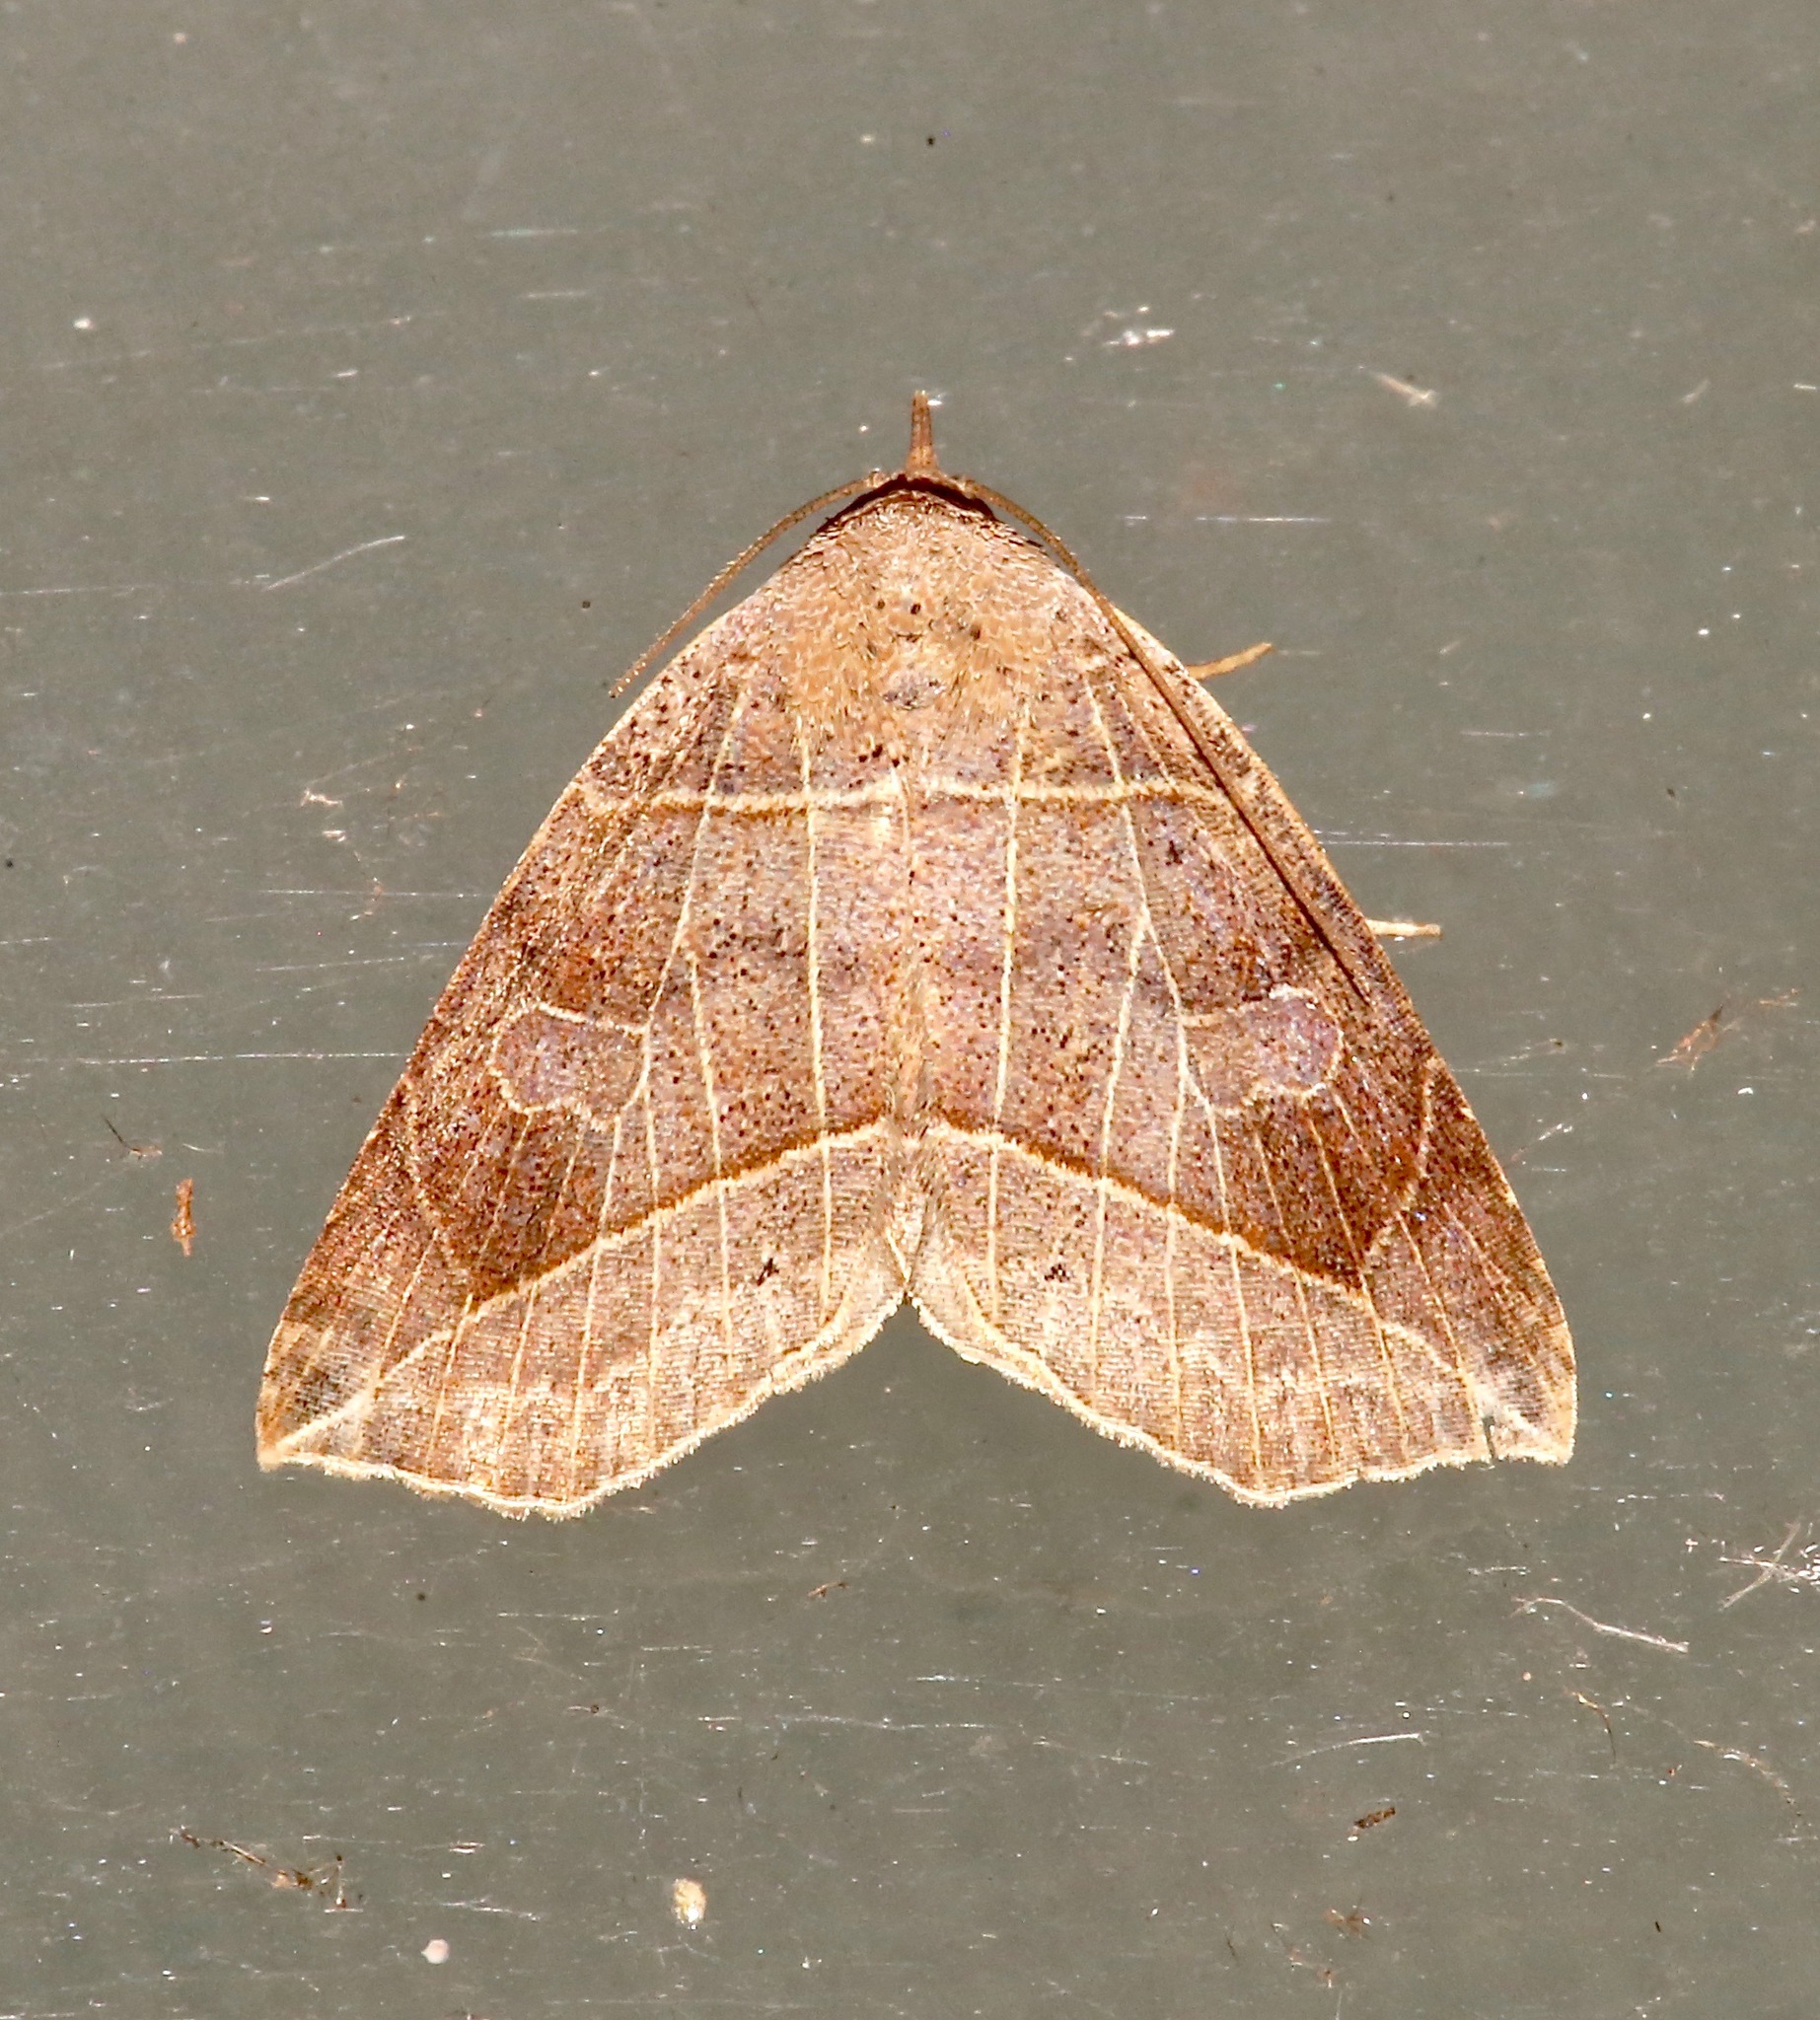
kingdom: Animalia
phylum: Arthropoda
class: Insecta
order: Lepidoptera
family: Erebidae
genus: Isogona
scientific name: Isogona tenuis
